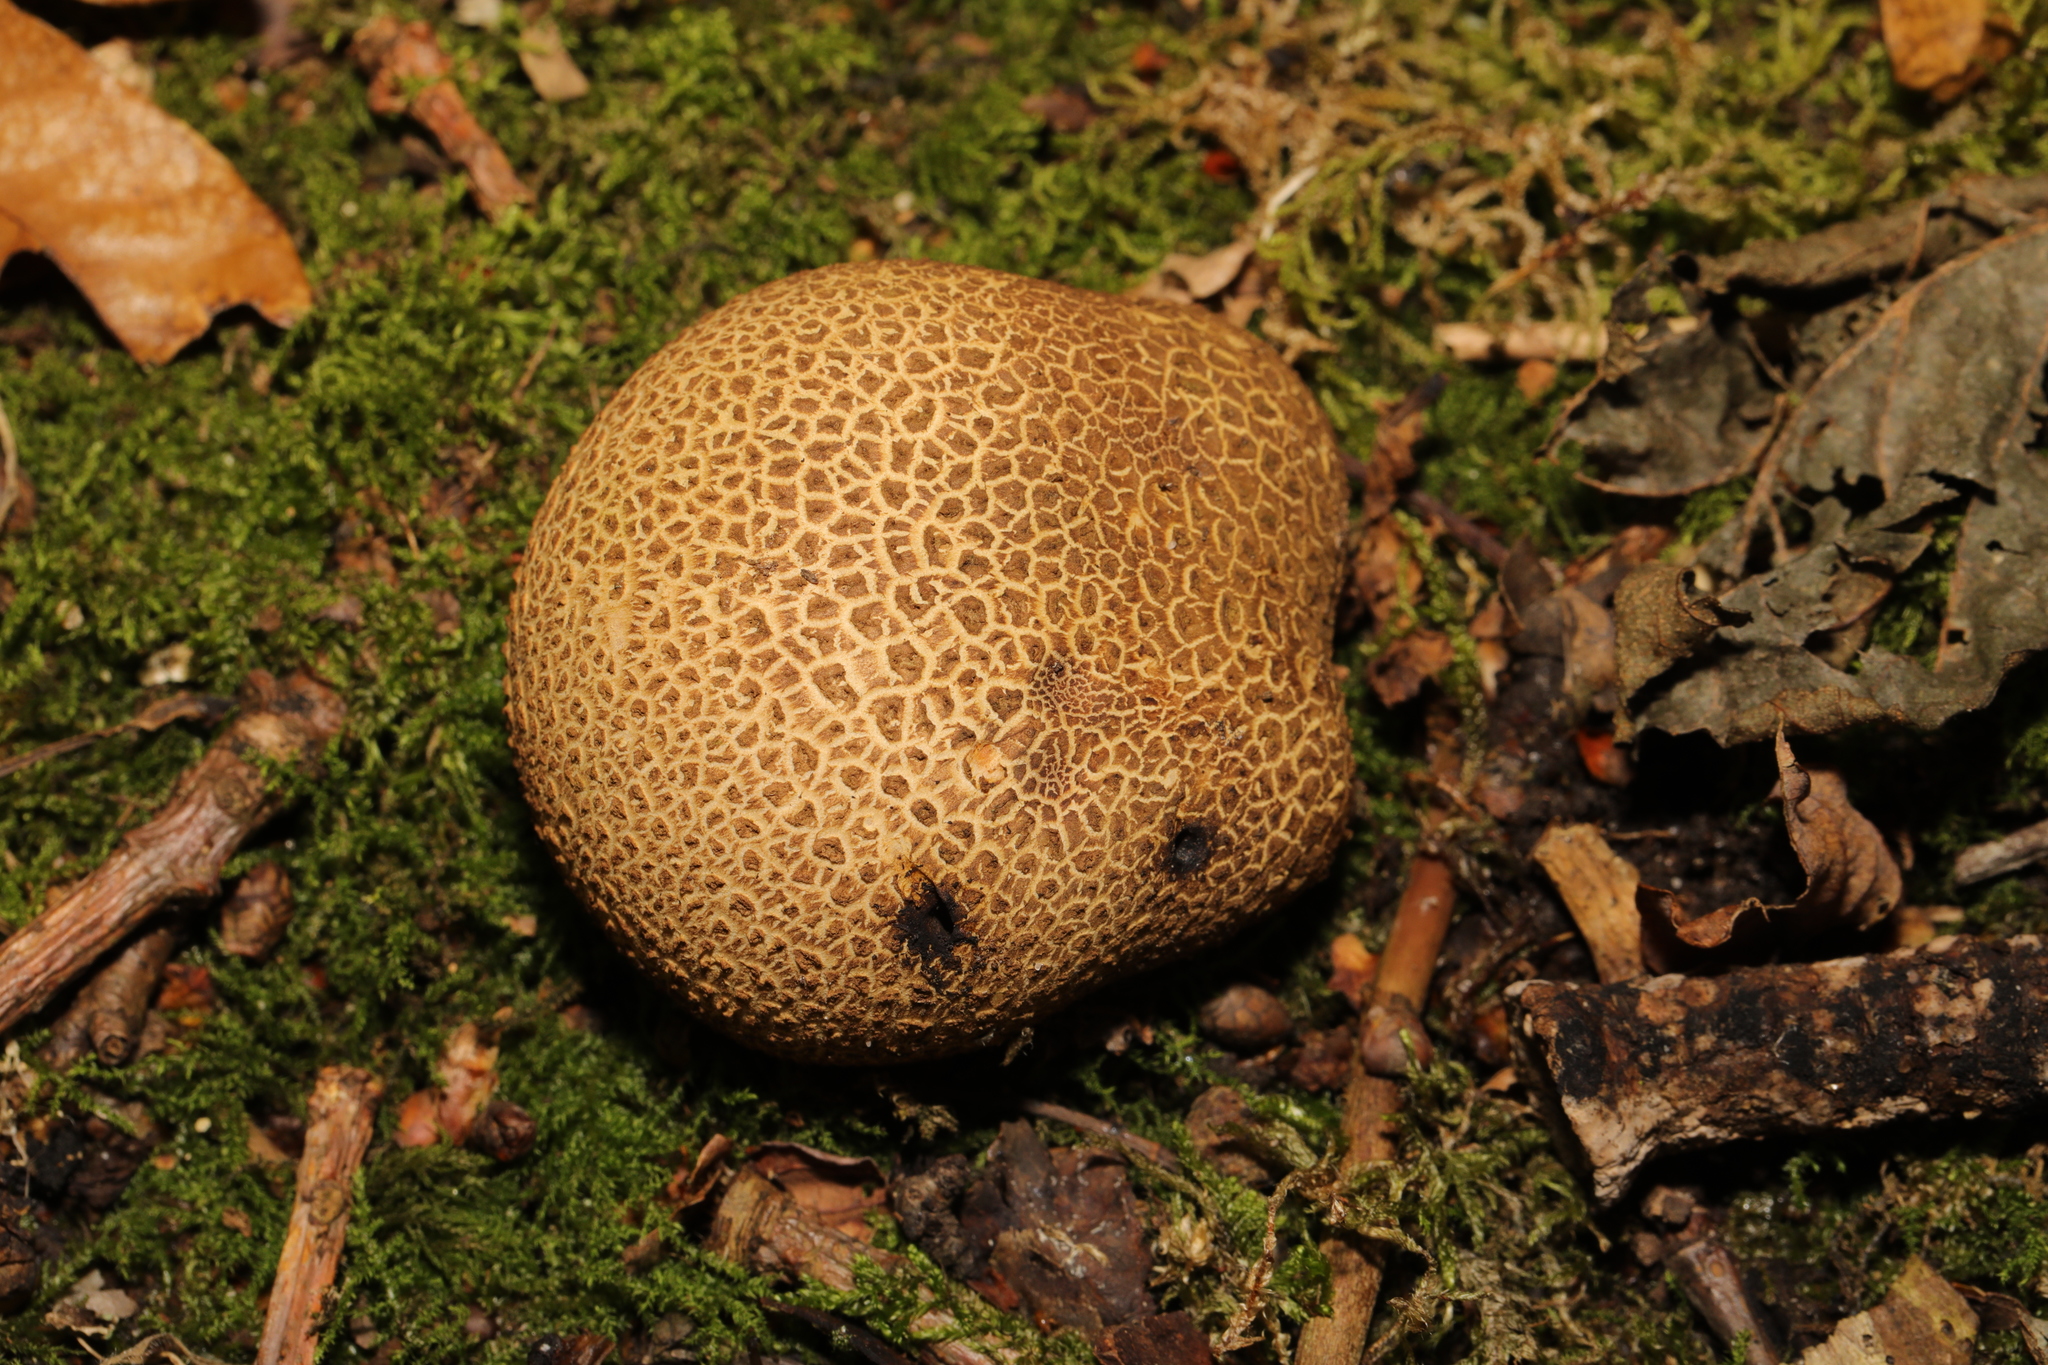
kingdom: Fungi
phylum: Basidiomycota
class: Agaricomycetes
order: Boletales
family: Sclerodermataceae
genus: Scleroderma
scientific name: Scleroderma citrinum
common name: Common earthball
